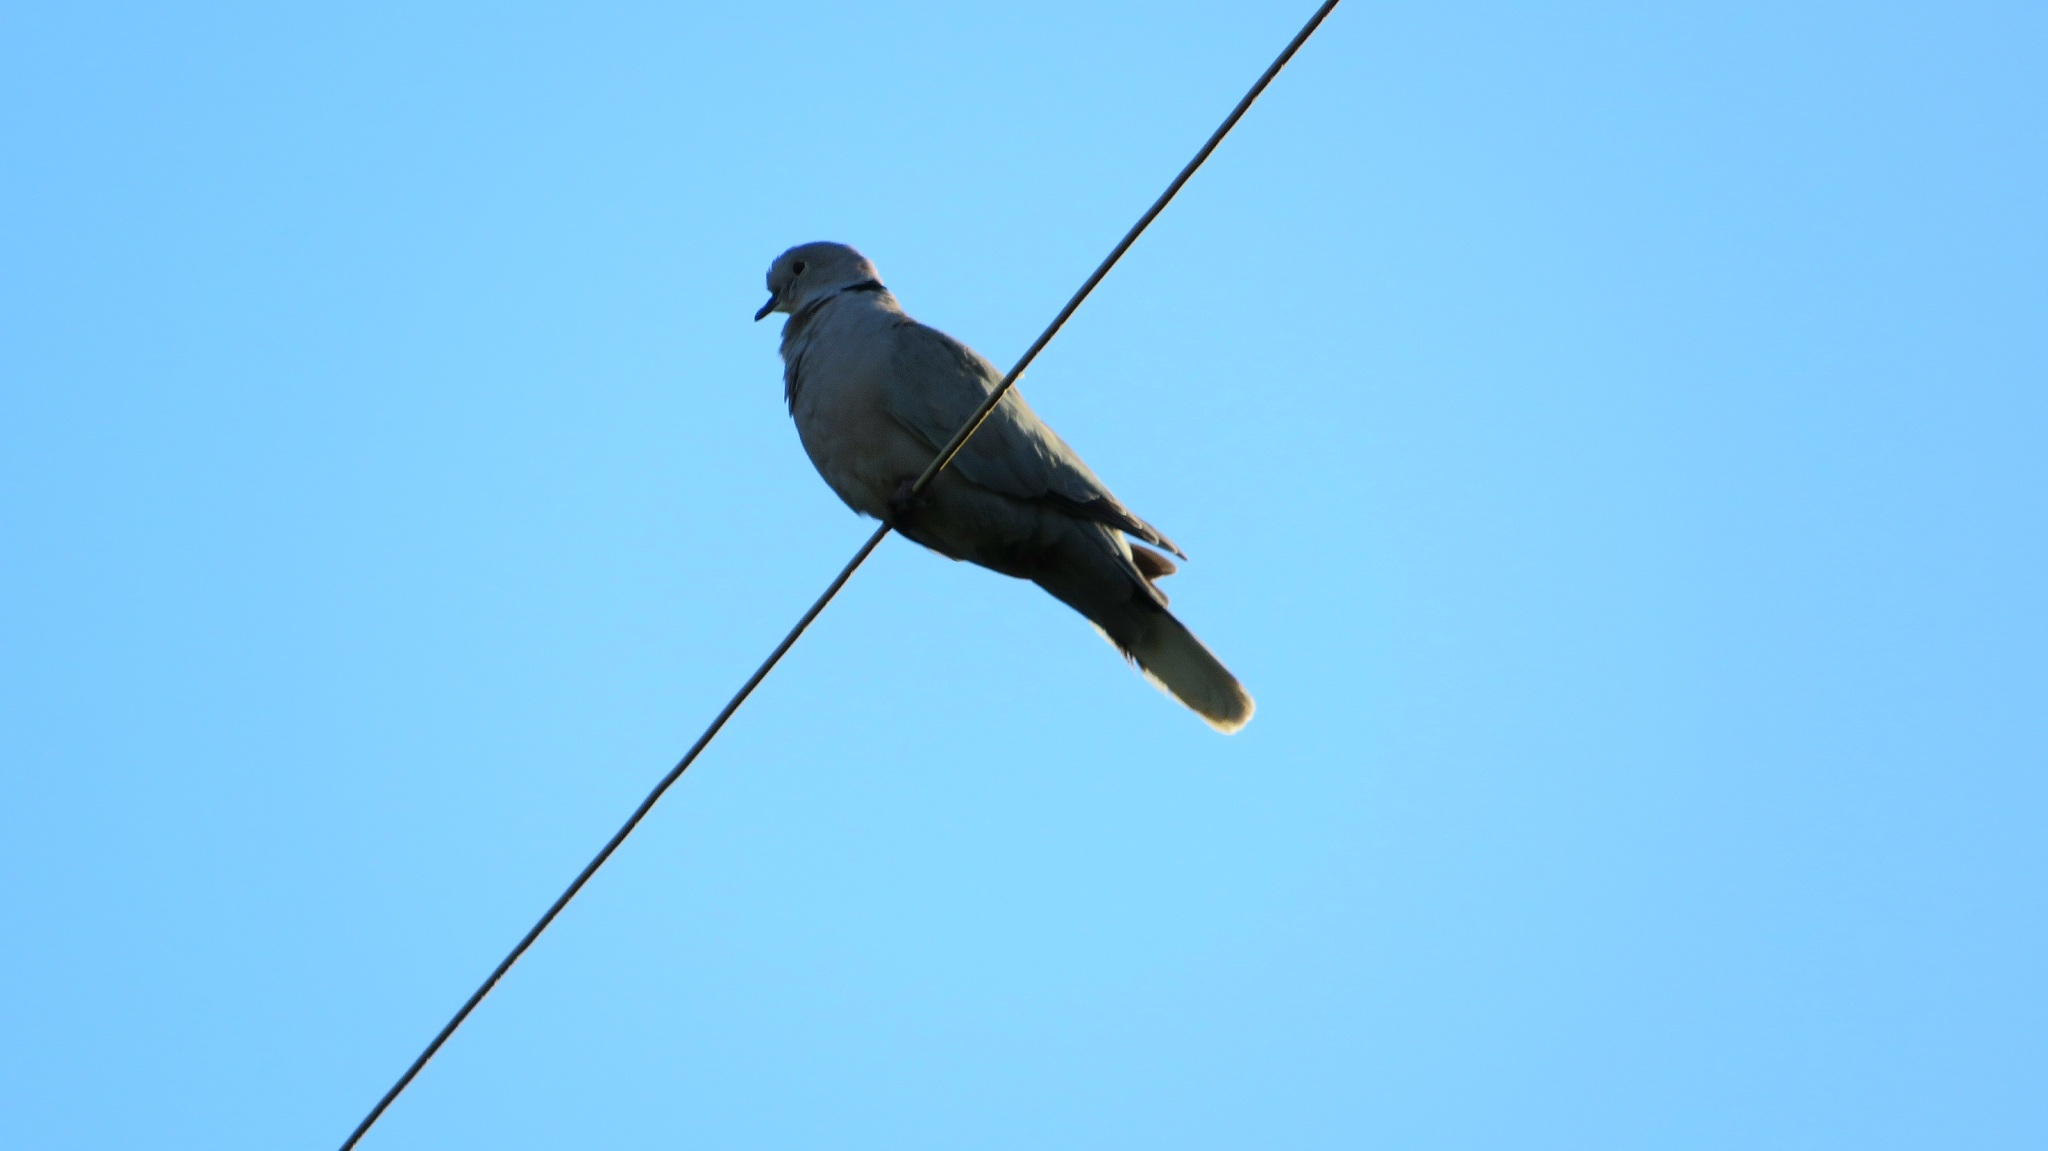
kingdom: Animalia
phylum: Chordata
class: Aves
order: Columbiformes
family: Columbidae
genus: Streptopelia
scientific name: Streptopelia decaocto
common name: Eurasian collared dove
